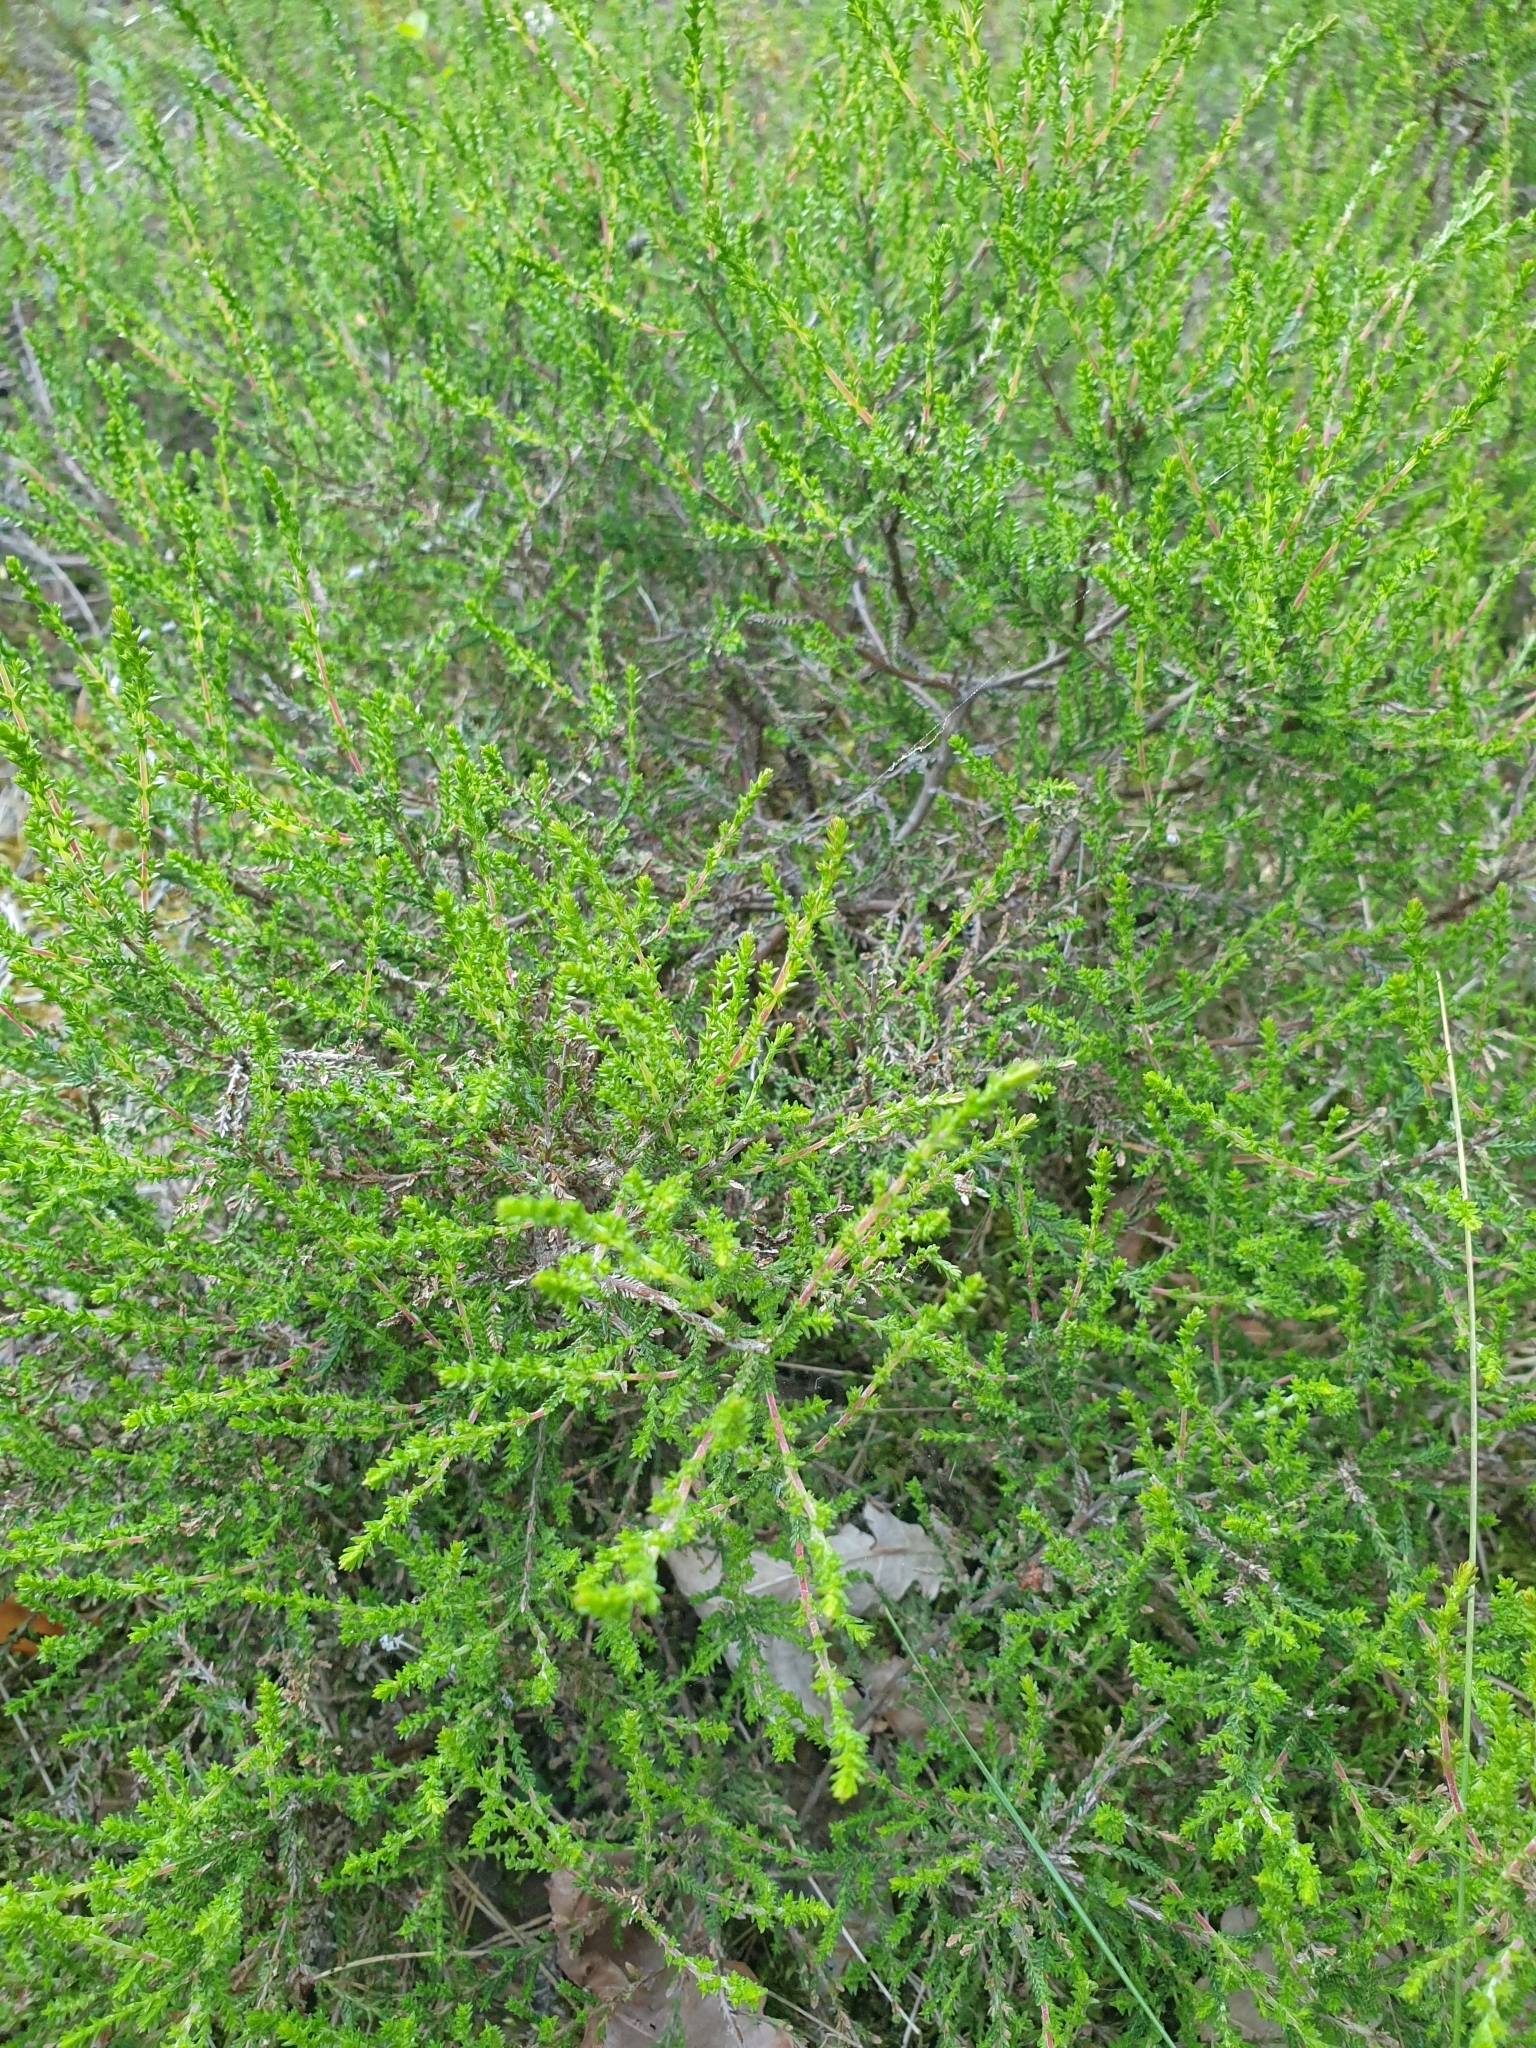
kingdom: Plantae
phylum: Tracheophyta
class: Magnoliopsida
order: Ericales
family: Ericaceae
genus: Calluna
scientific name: Calluna vulgaris
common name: Heather
